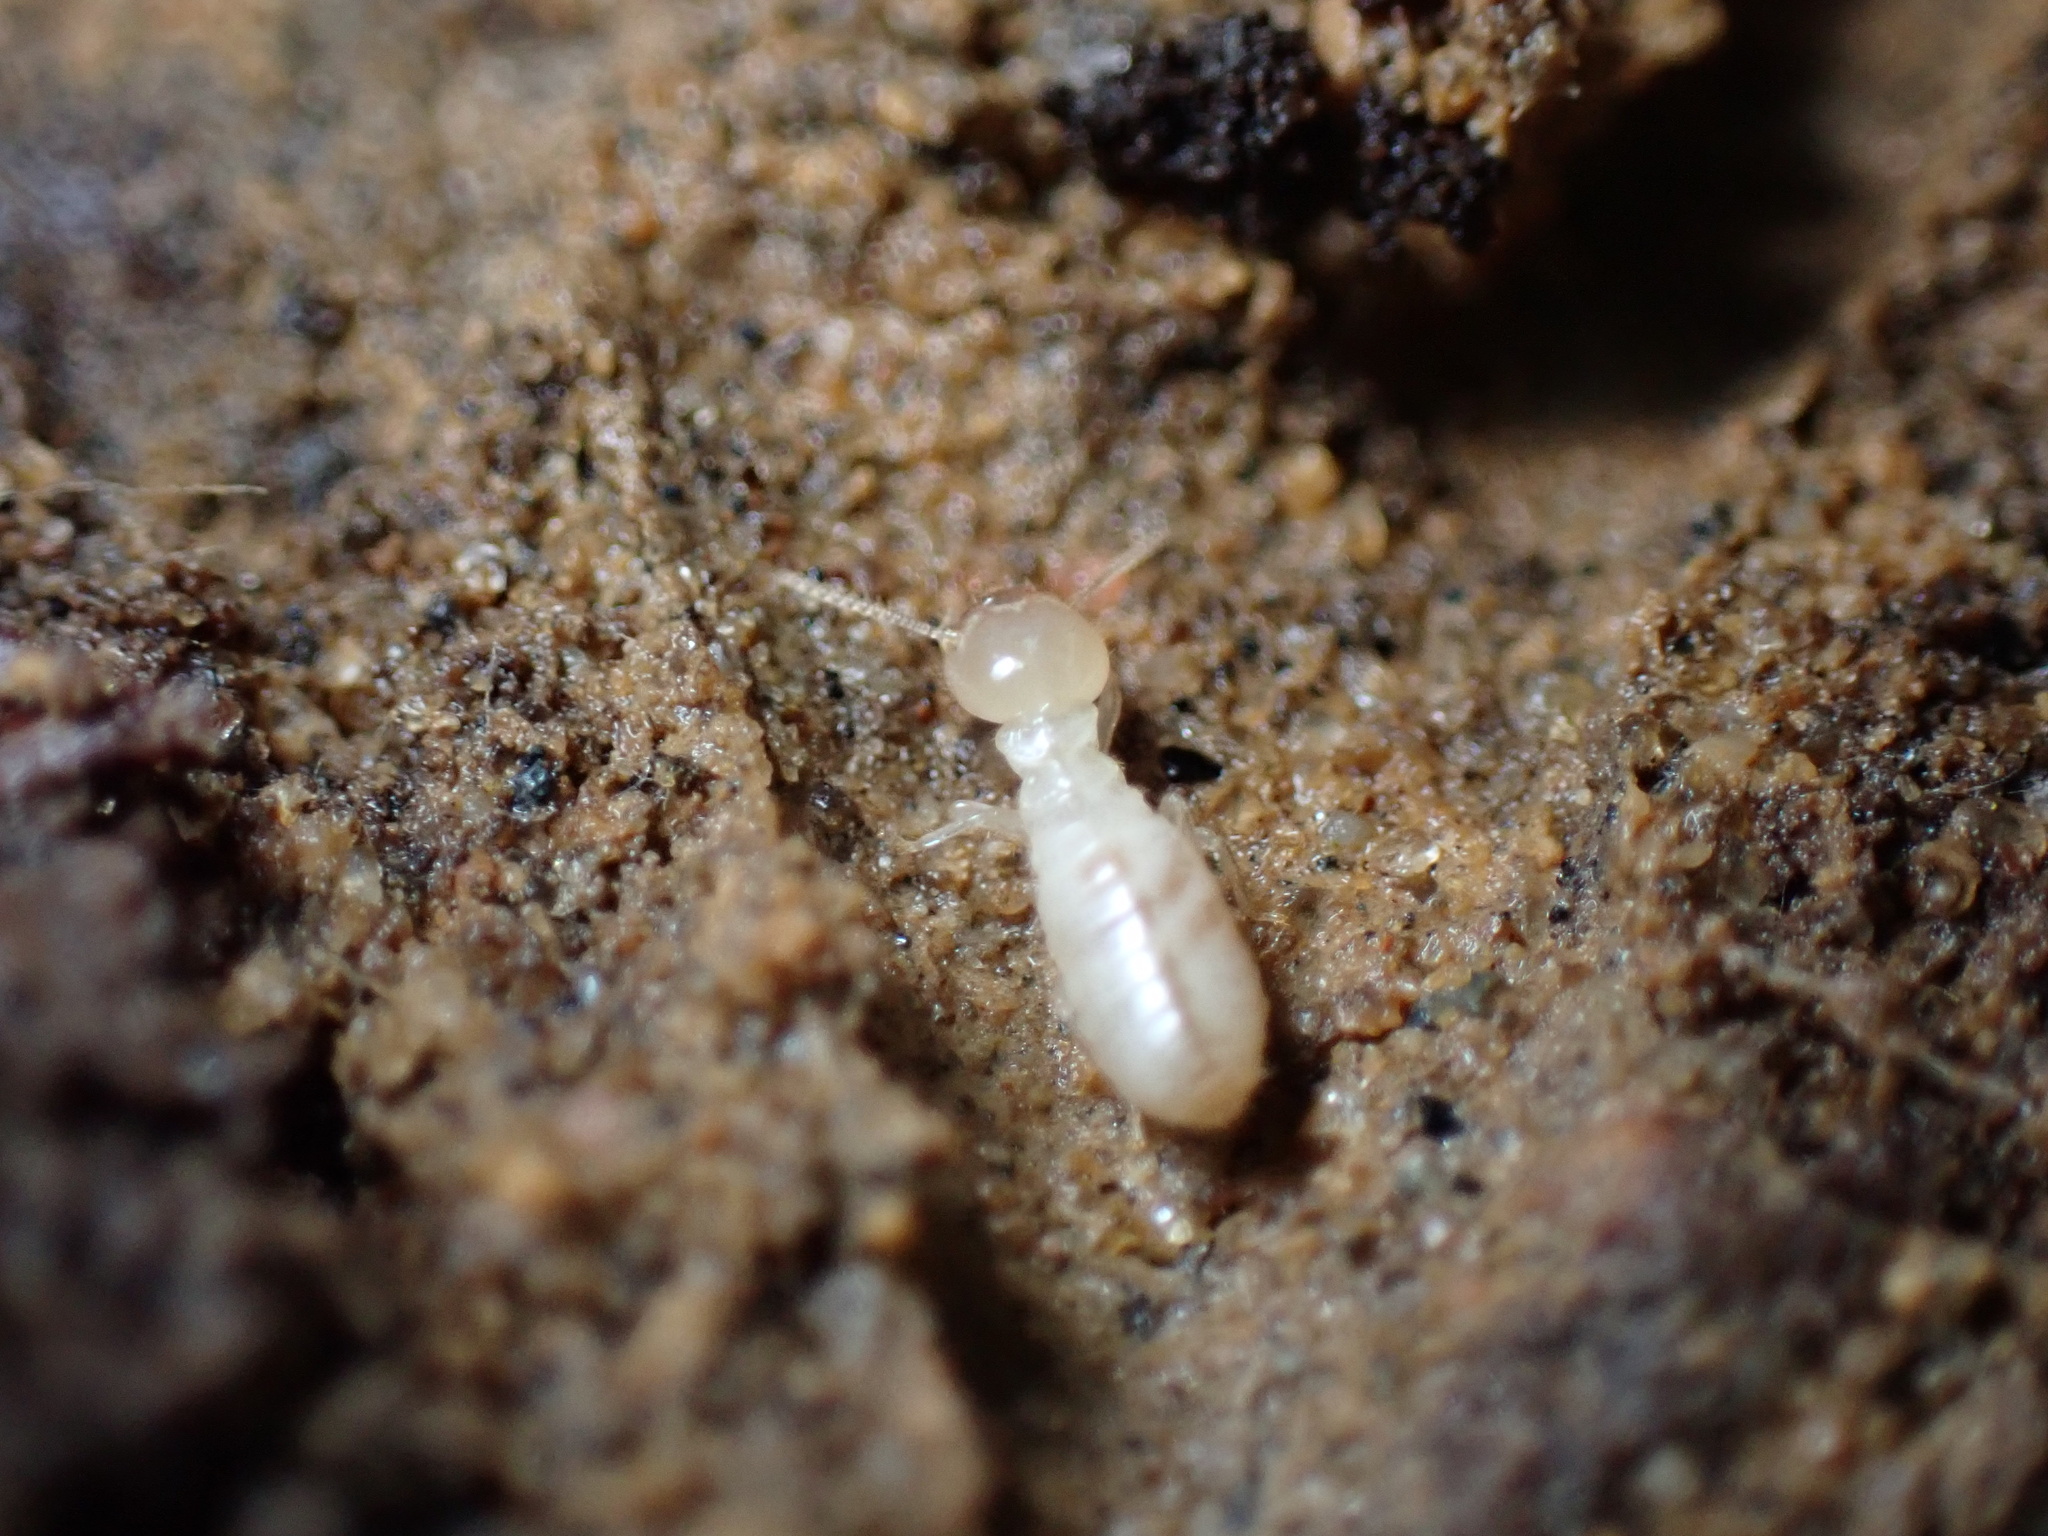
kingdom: Animalia
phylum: Arthropoda
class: Insecta
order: Blattodea
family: Rhinotermitidae
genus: Reticulitermes
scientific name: Reticulitermes flavipes
